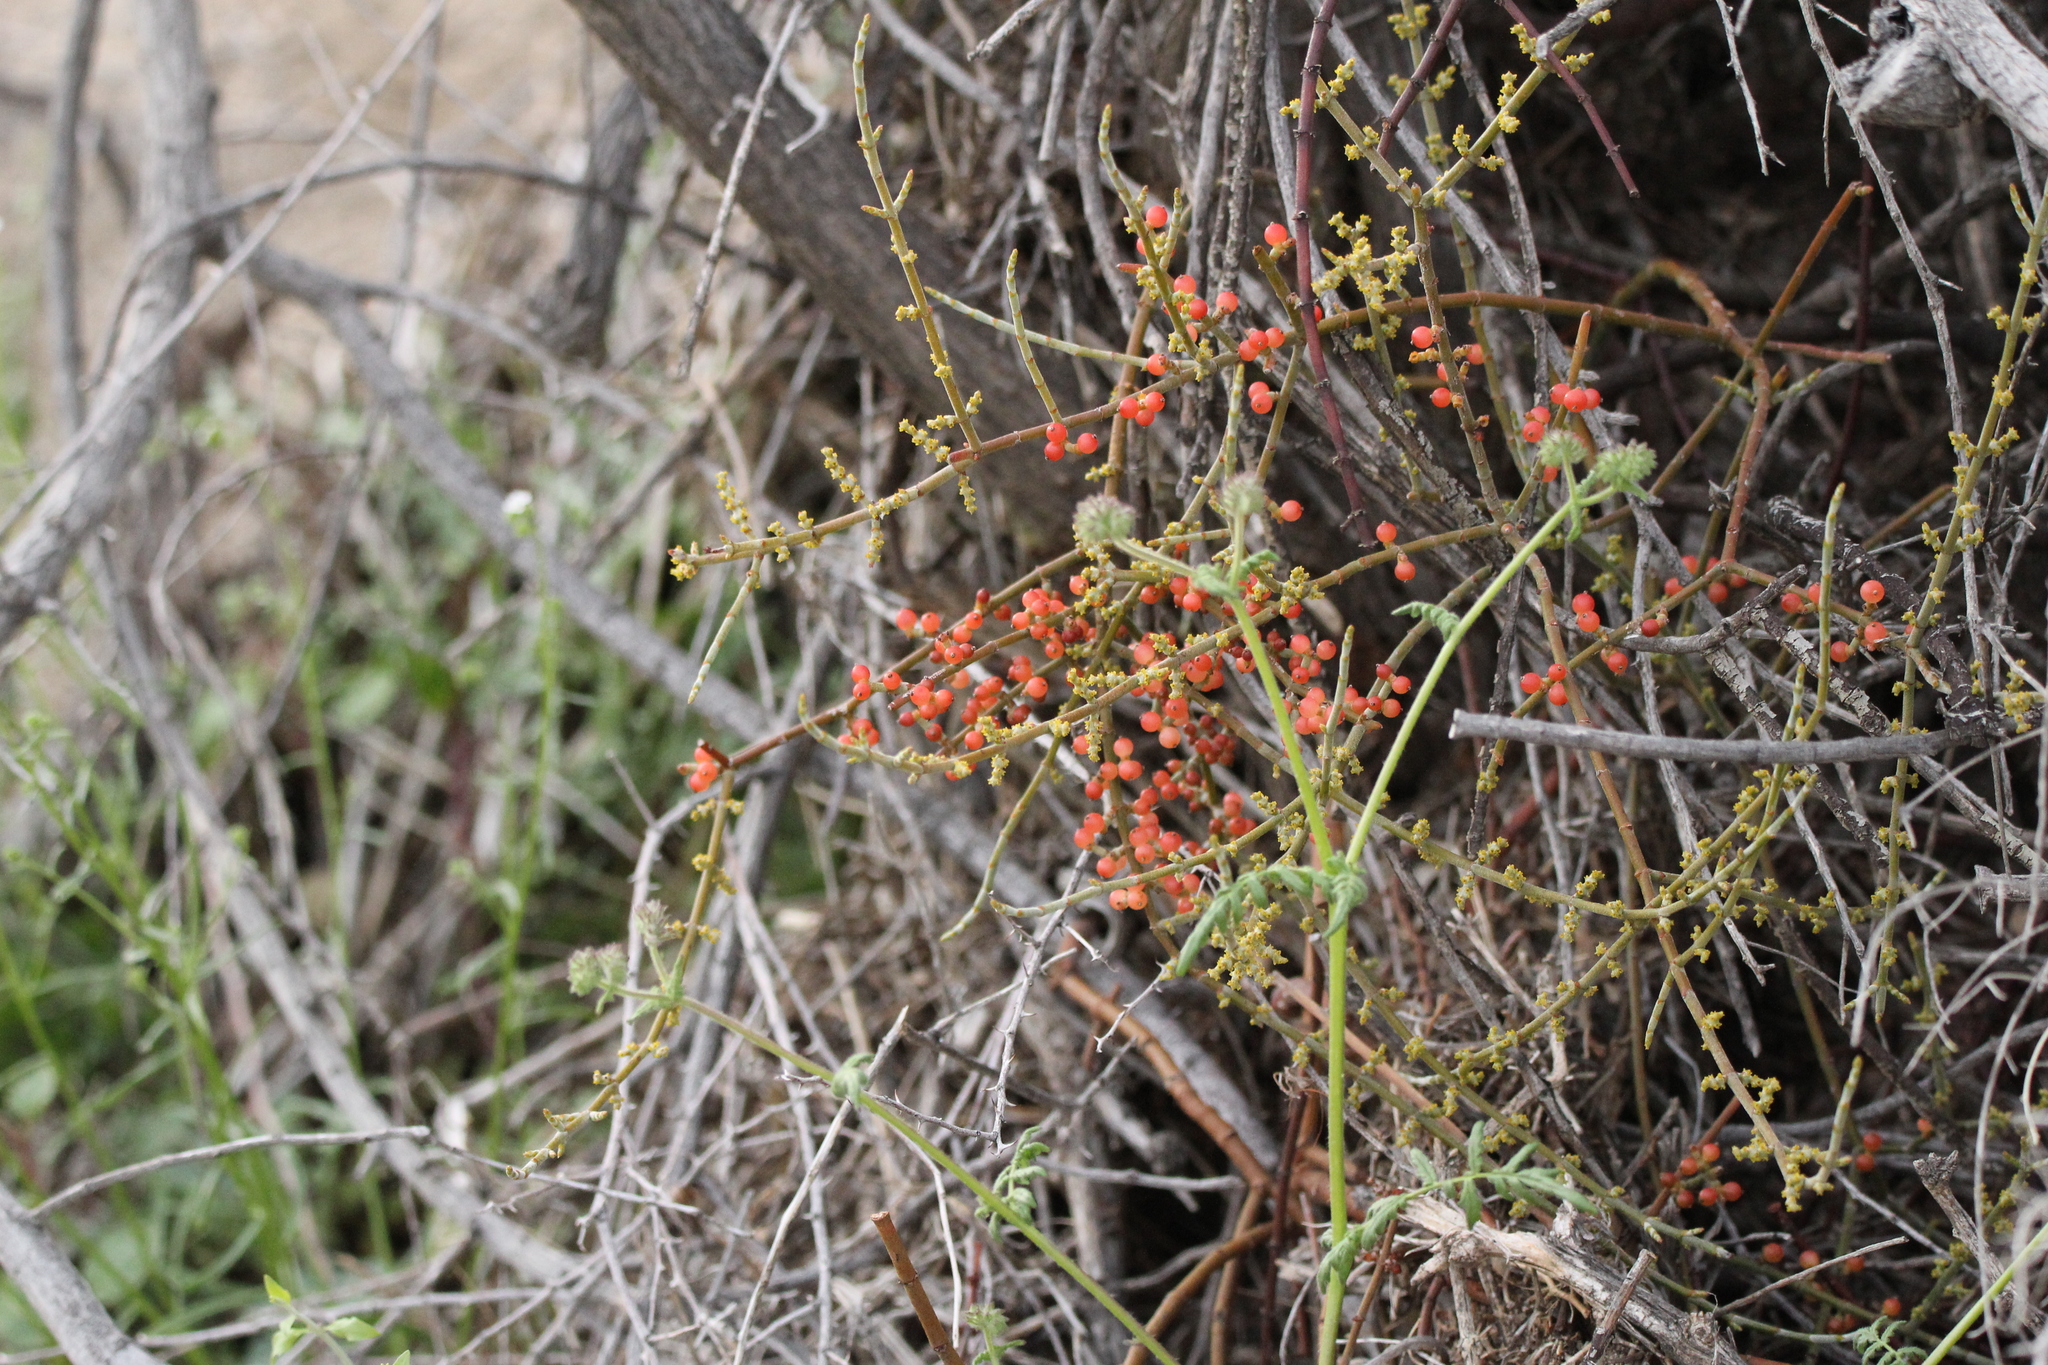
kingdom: Plantae
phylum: Tracheophyta
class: Magnoliopsida
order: Santalales
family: Viscaceae
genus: Phoradendron
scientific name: Phoradendron californicum
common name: Acacia mistletoe
